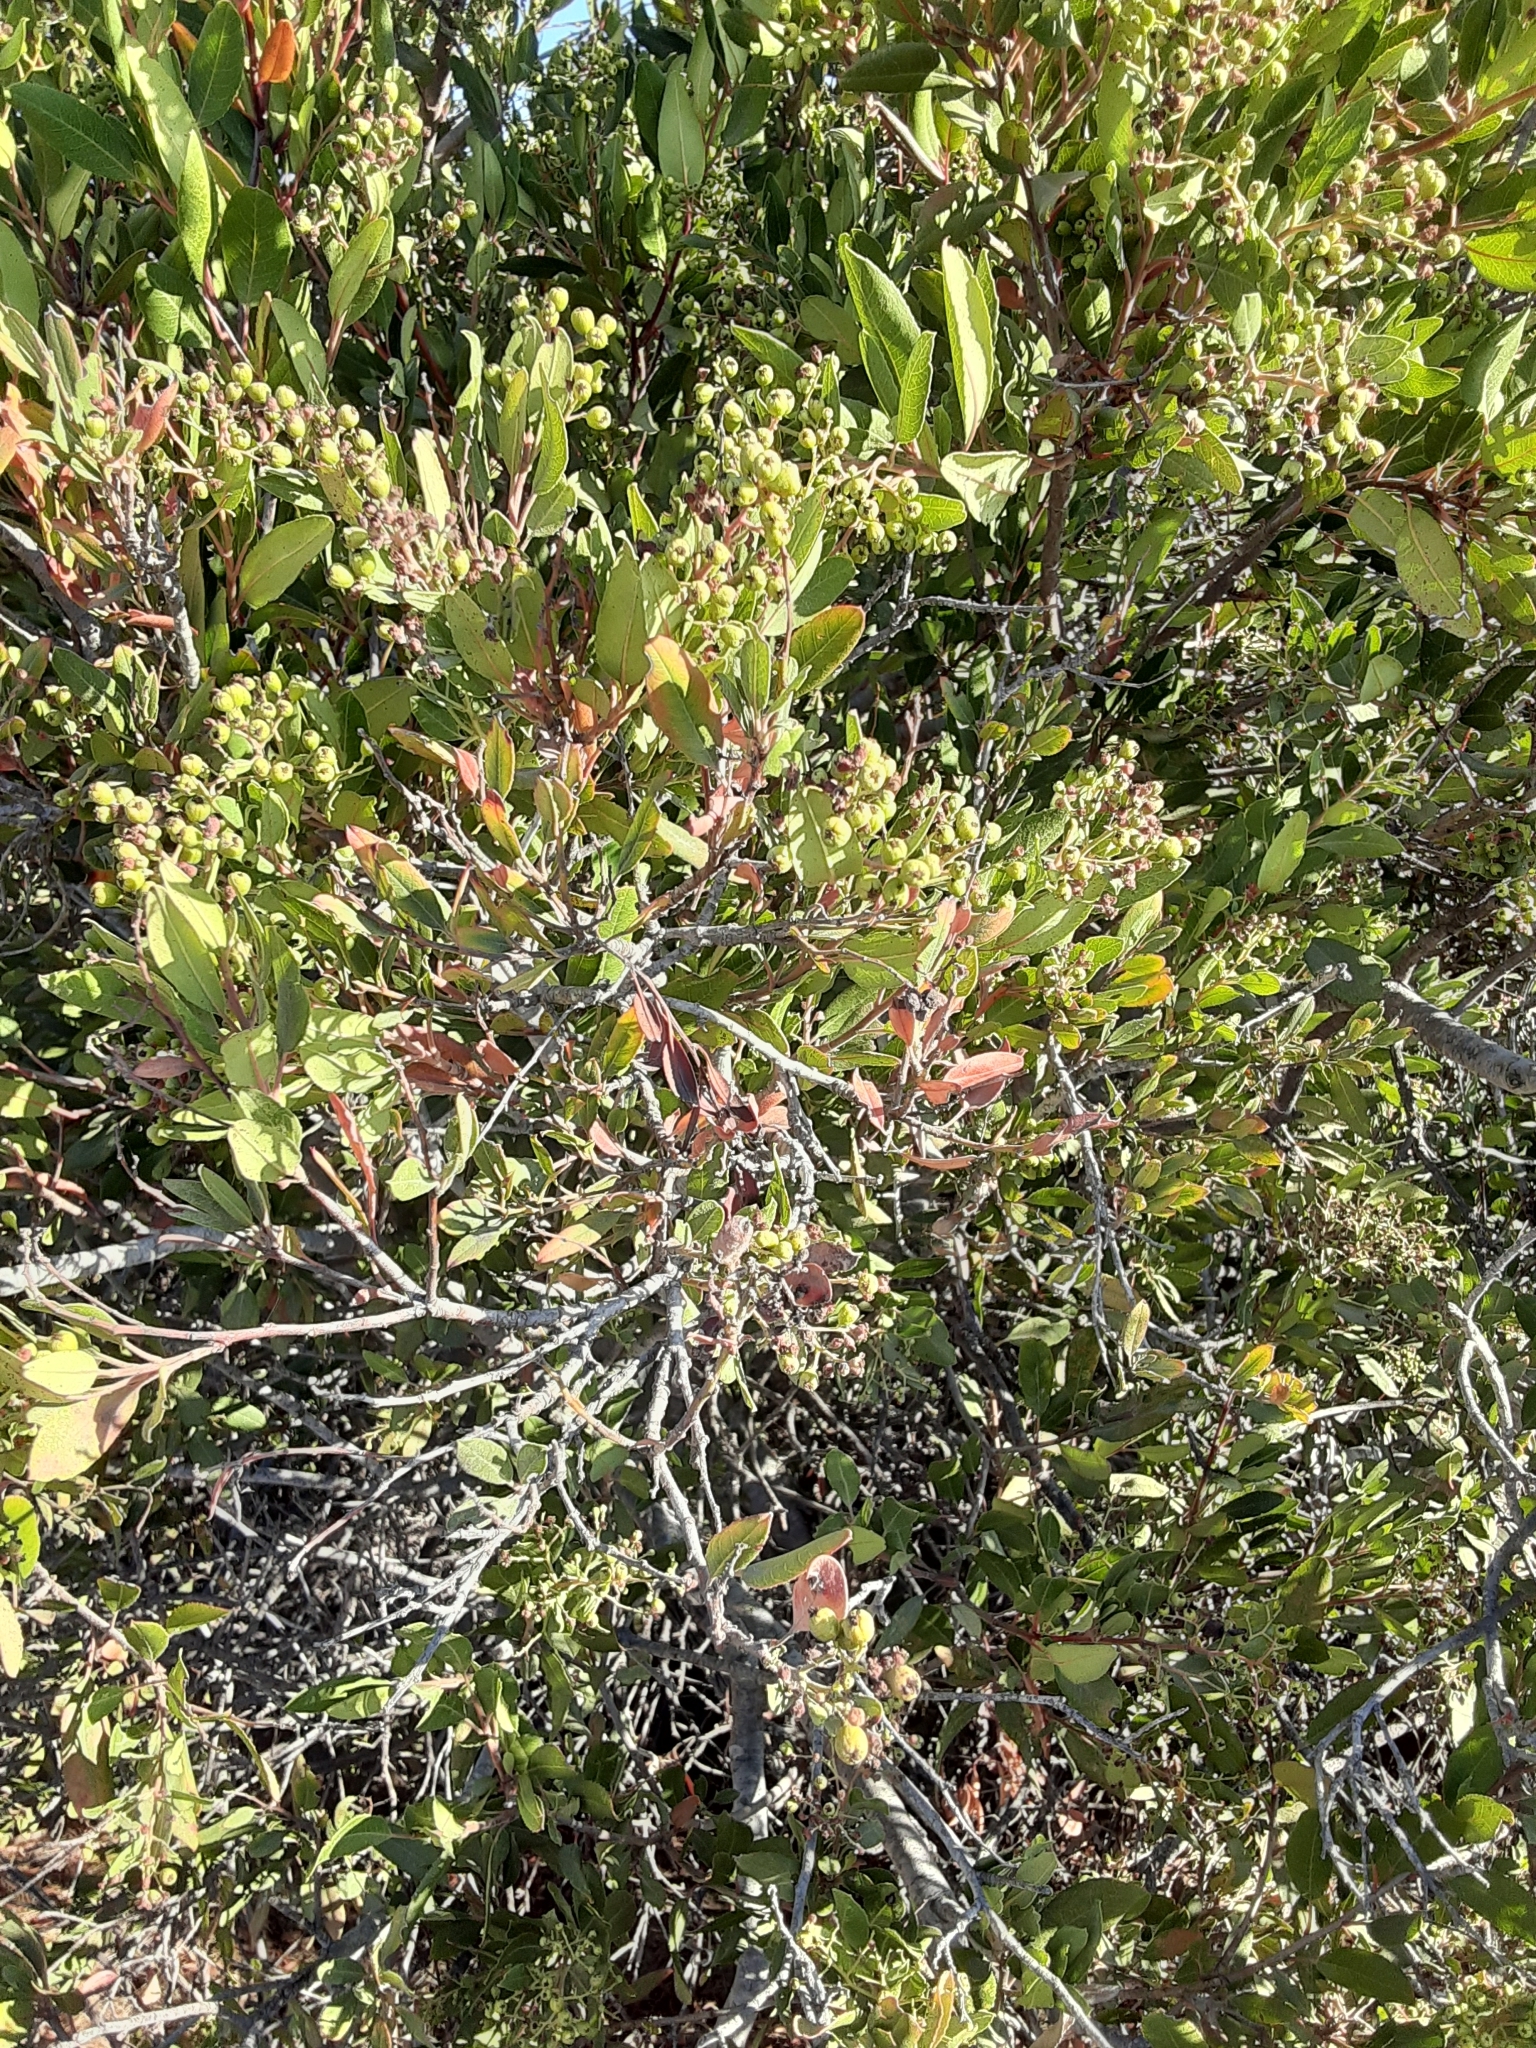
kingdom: Plantae
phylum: Tracheophyta
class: Magnoliopsida
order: Rosales
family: Rosaceae
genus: Heteromeles
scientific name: Heteromeles arbutifolia
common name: California-holly
